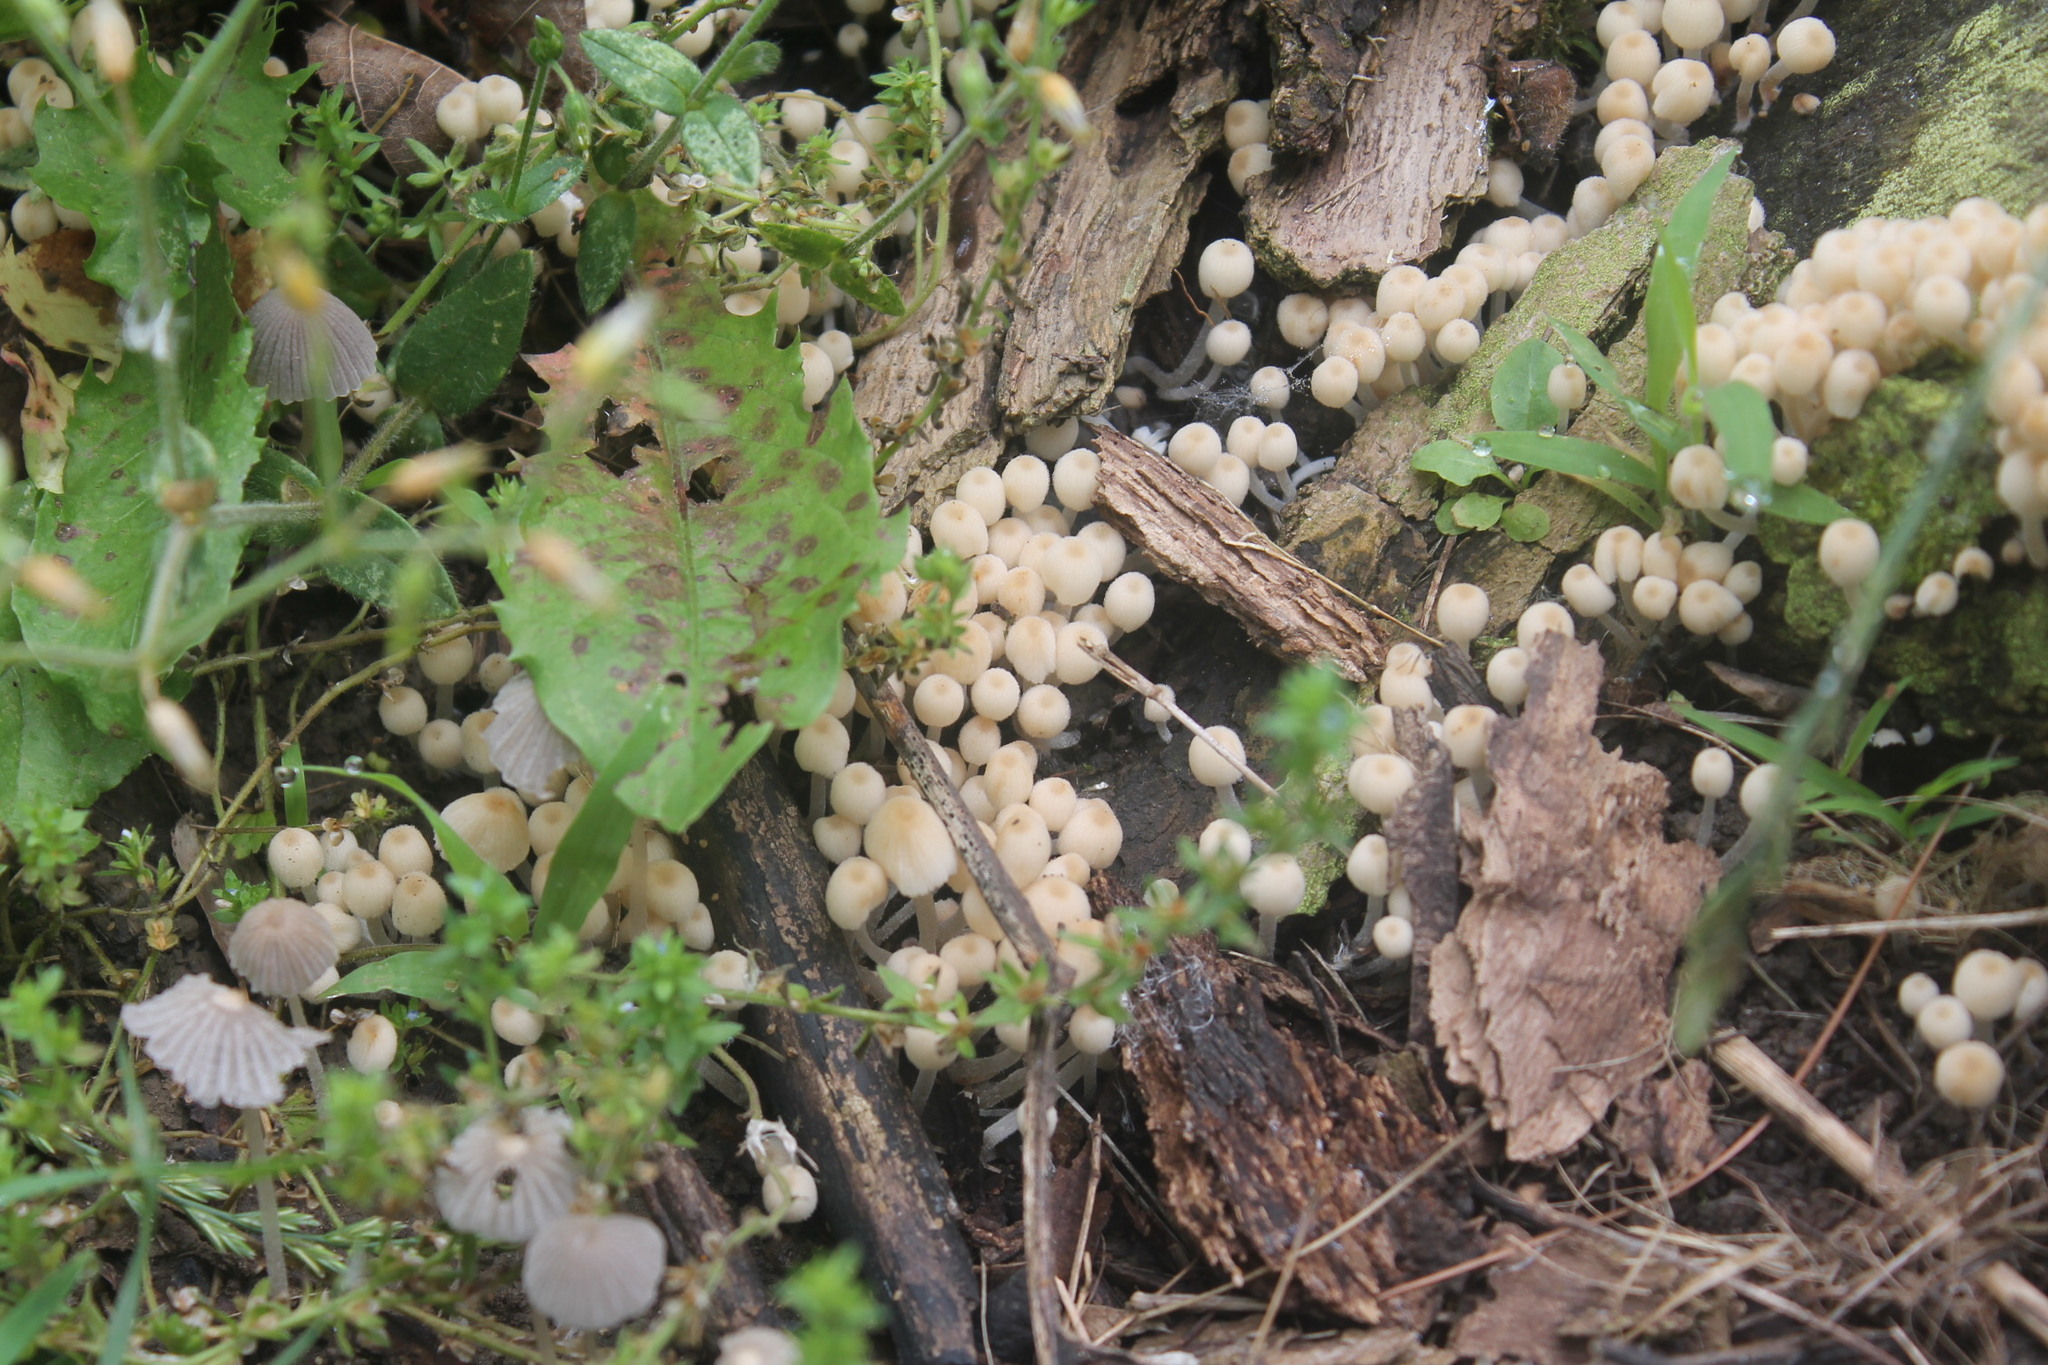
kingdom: Fungi
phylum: Basidiomycota
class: Agaricomycetes
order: Agaricales
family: Psathyrellaceae
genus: Coprinellus
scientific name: Coprinellus disseminatus
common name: Fairies' bonnets
